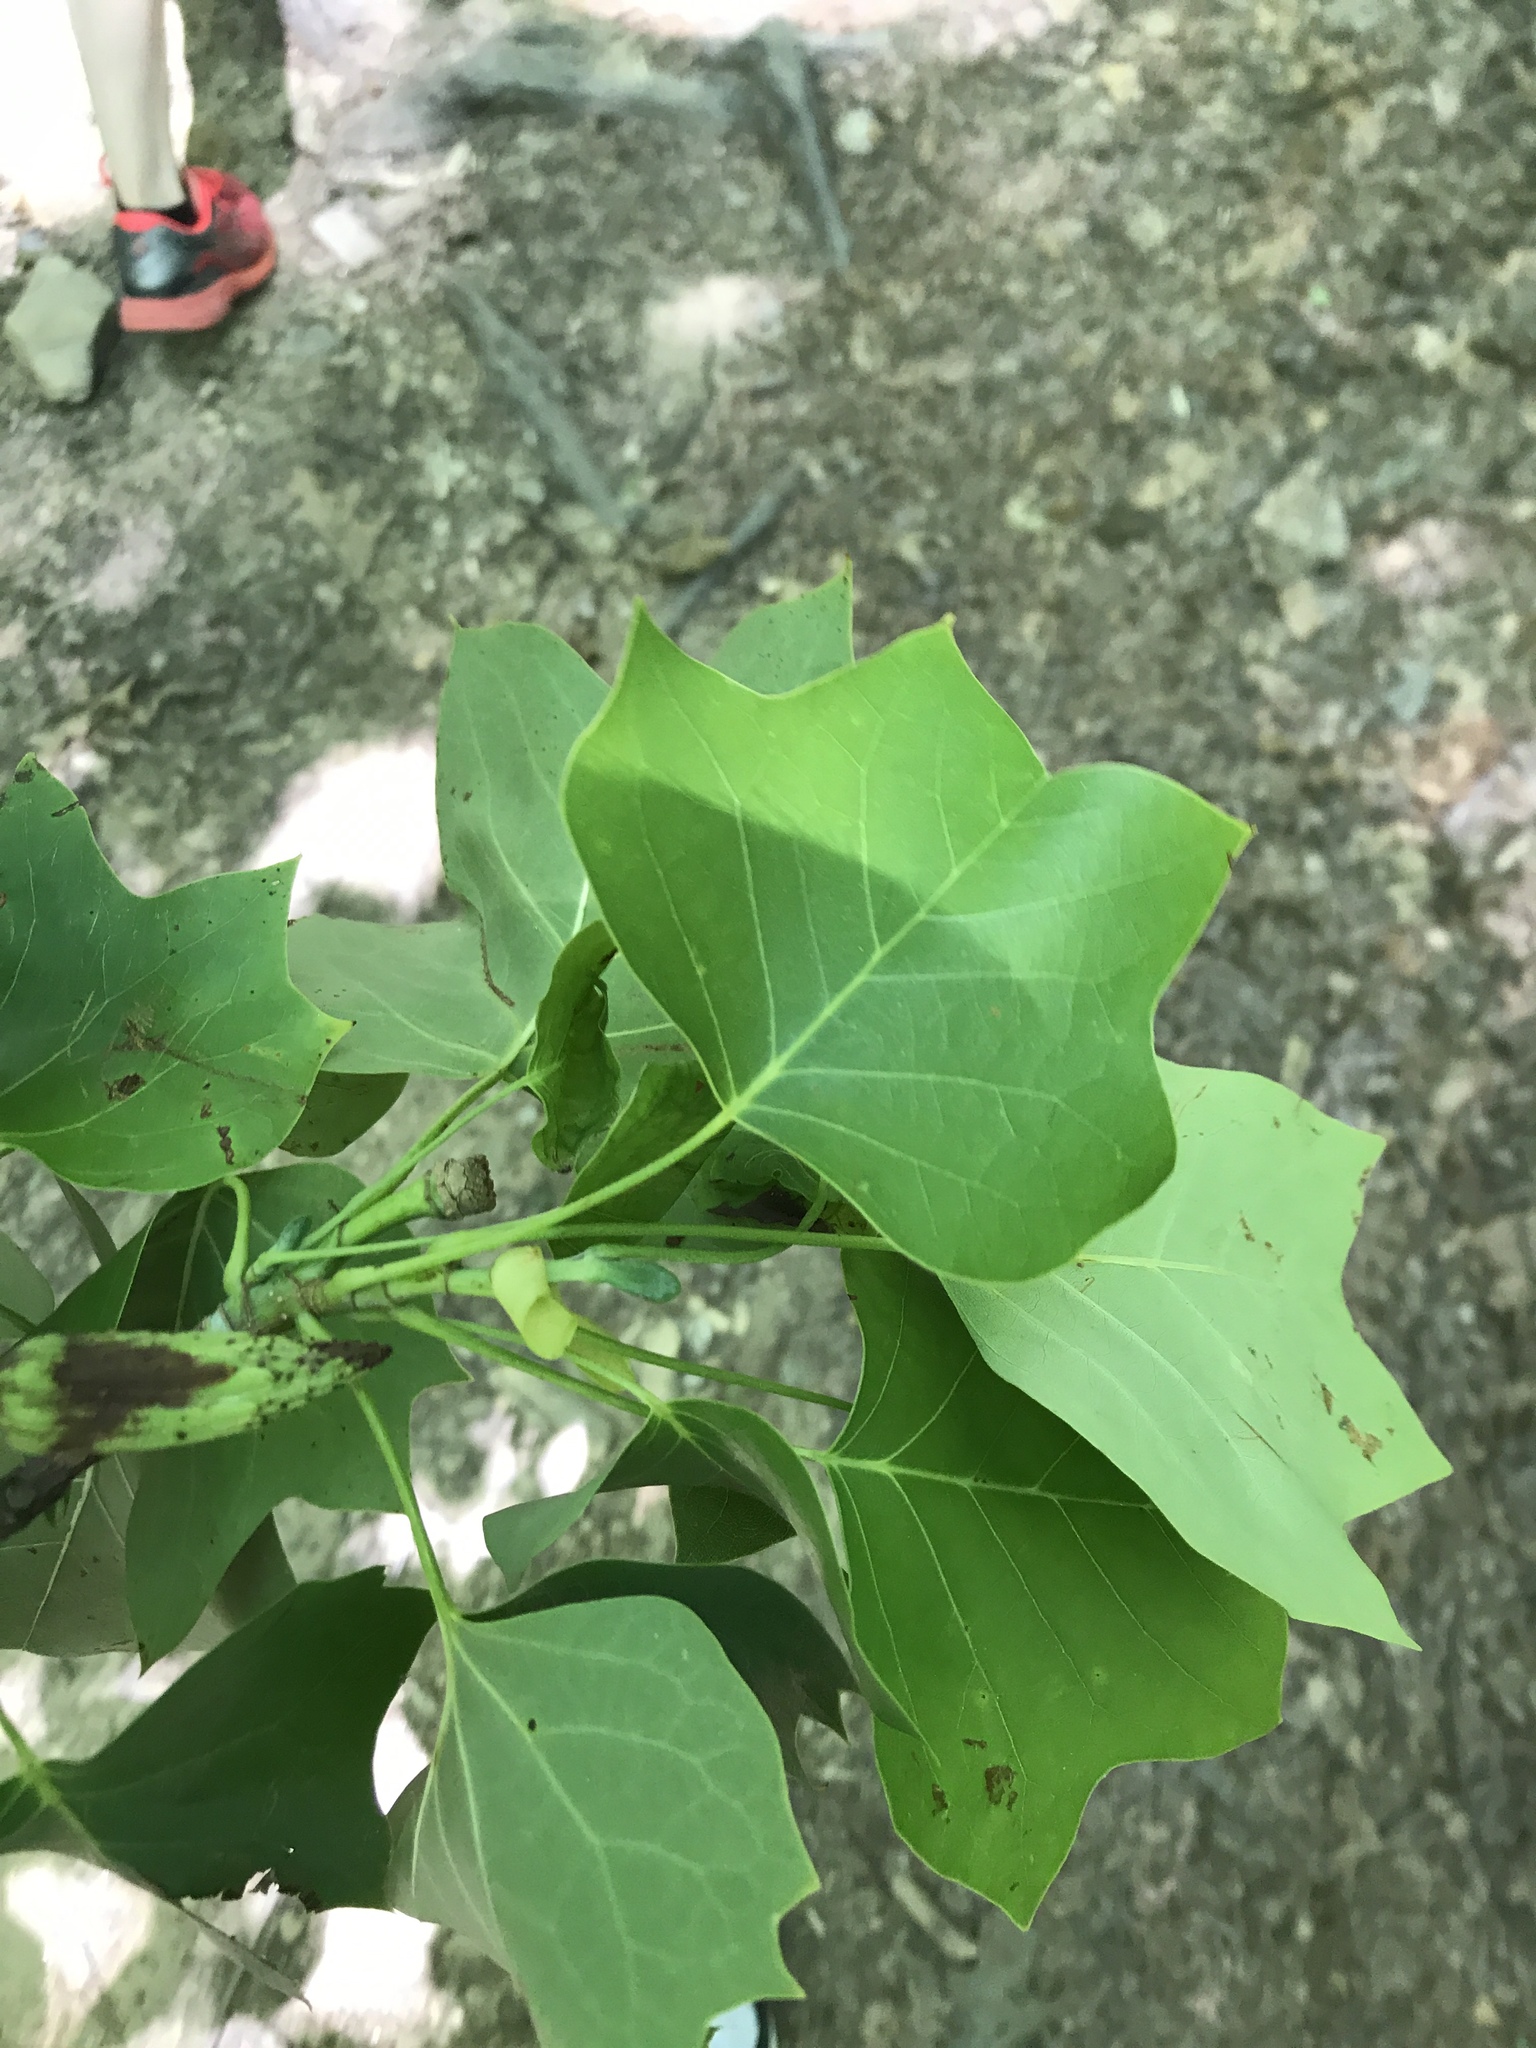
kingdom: Plantae
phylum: Tracheophyta
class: Magnoliopsida
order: Magnoliales
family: Magnoliaceae
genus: Liriodendron
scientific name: Liriodendron tulipifera
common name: Tulip tree
